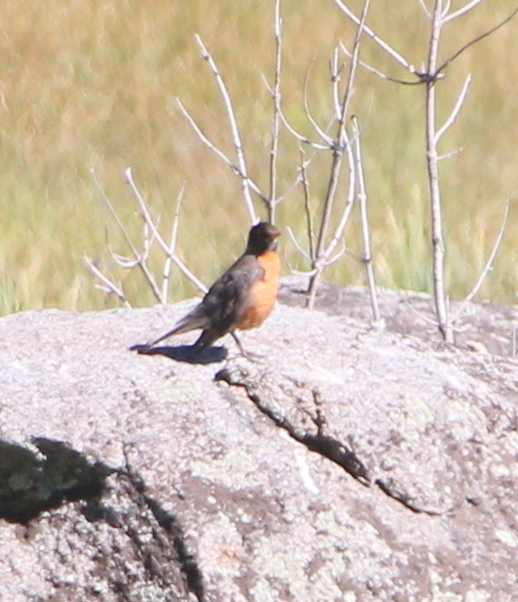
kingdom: Animalia
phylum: Chordata
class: Aves
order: Passeriformes
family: Turdidae
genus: Turdus
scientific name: Turdus migratorius
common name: American robin
